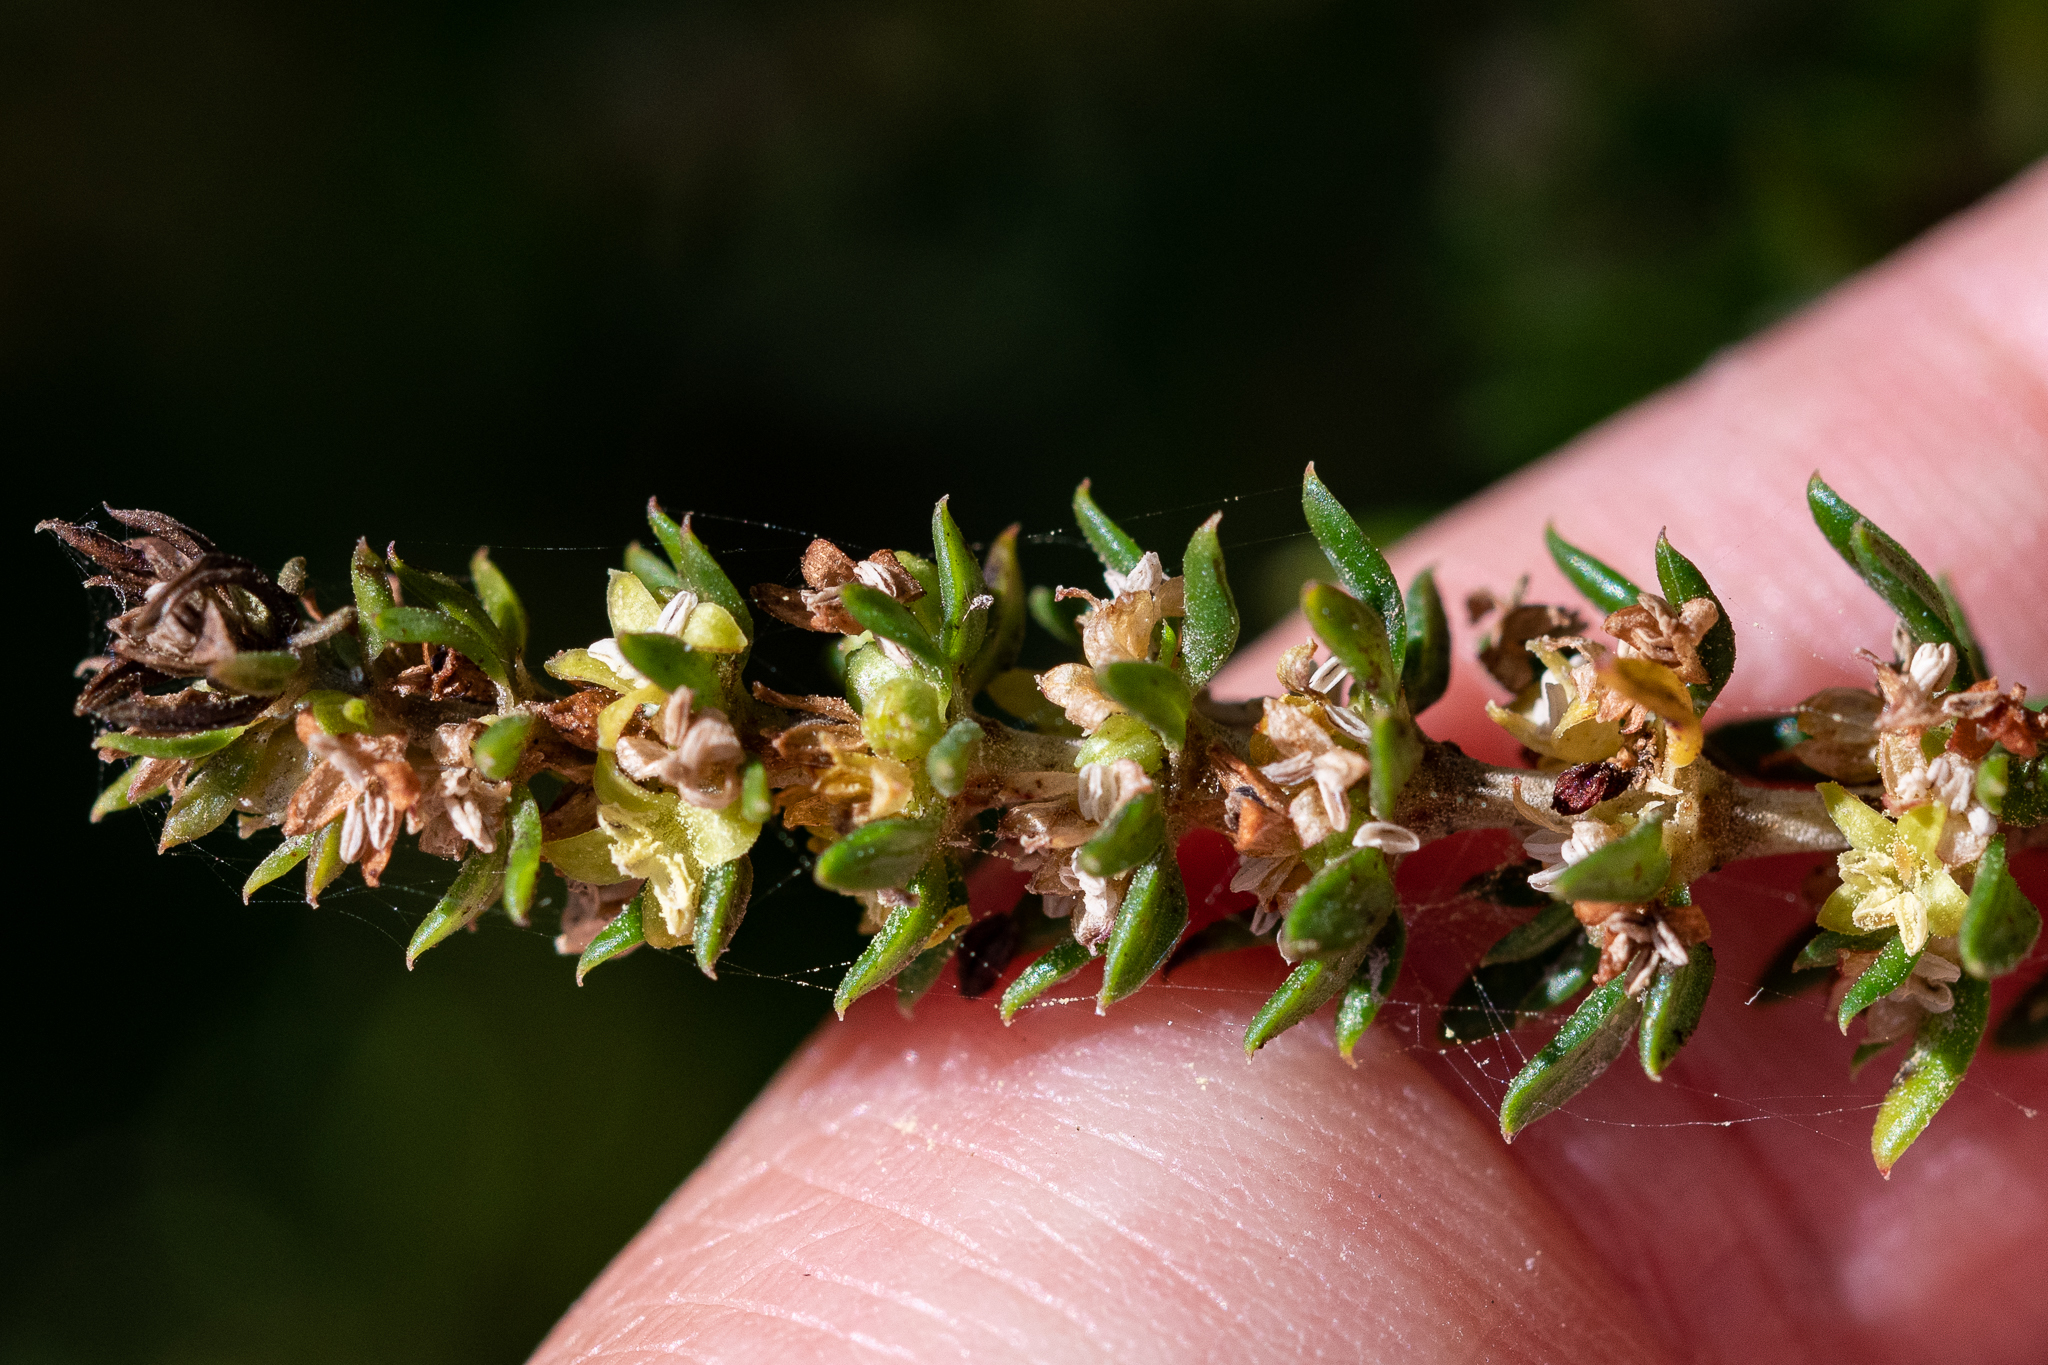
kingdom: Plantae
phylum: Tracheophyta
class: Magnoliopsida
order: Gentianales
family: Rubiaceae
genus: Anthospermum
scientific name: Anthospermum aethiopicum
